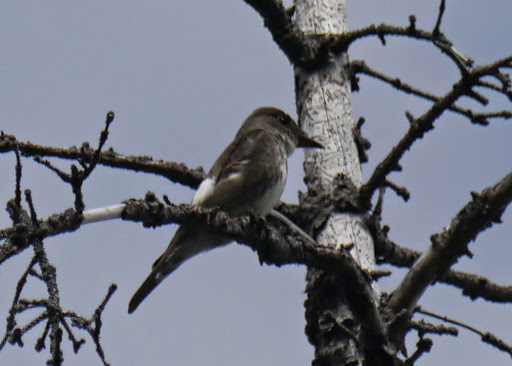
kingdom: Animalia
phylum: Chordata
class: Aves
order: Passeriformes
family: Tyrannidae
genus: Contopus
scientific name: Contopus cooperi
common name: Olive-sided flycatcher
